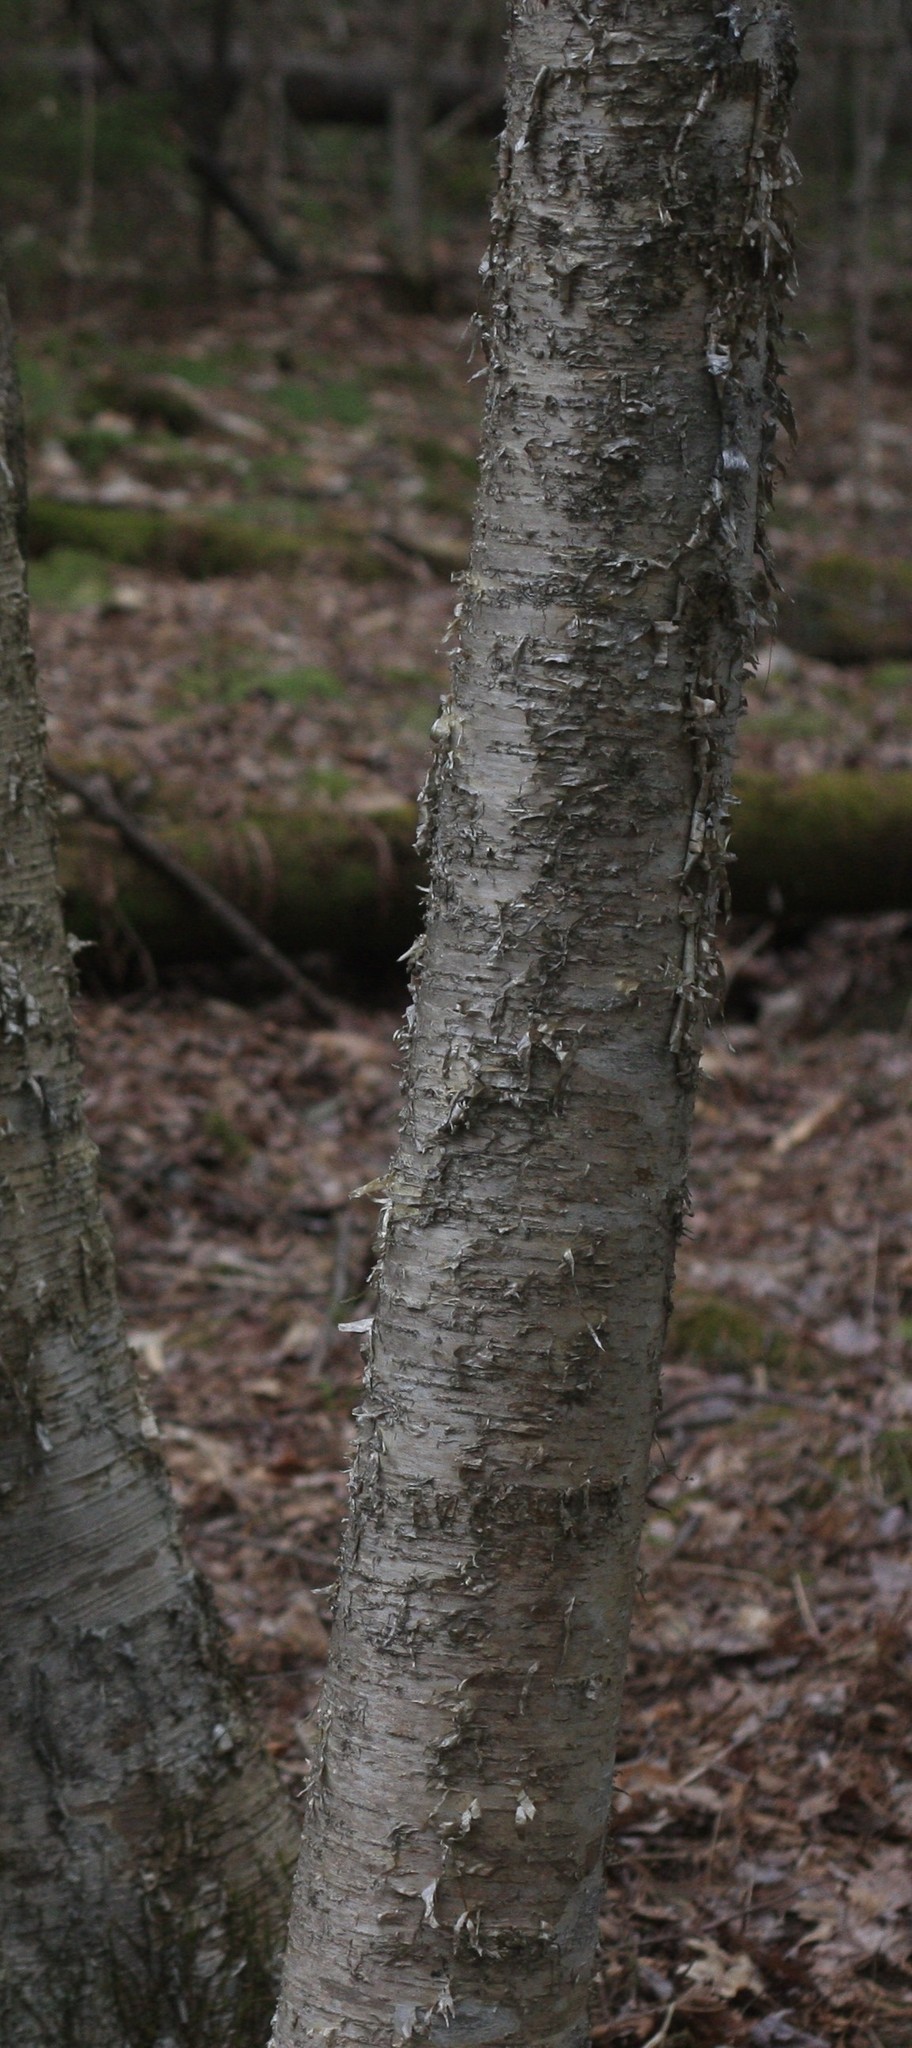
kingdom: Plantae
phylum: Tracheophyta
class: Magnoliopsida
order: Fagales
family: Betulaceae
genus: Betula
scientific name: Betula alleghaniensis
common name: Yellow birch
